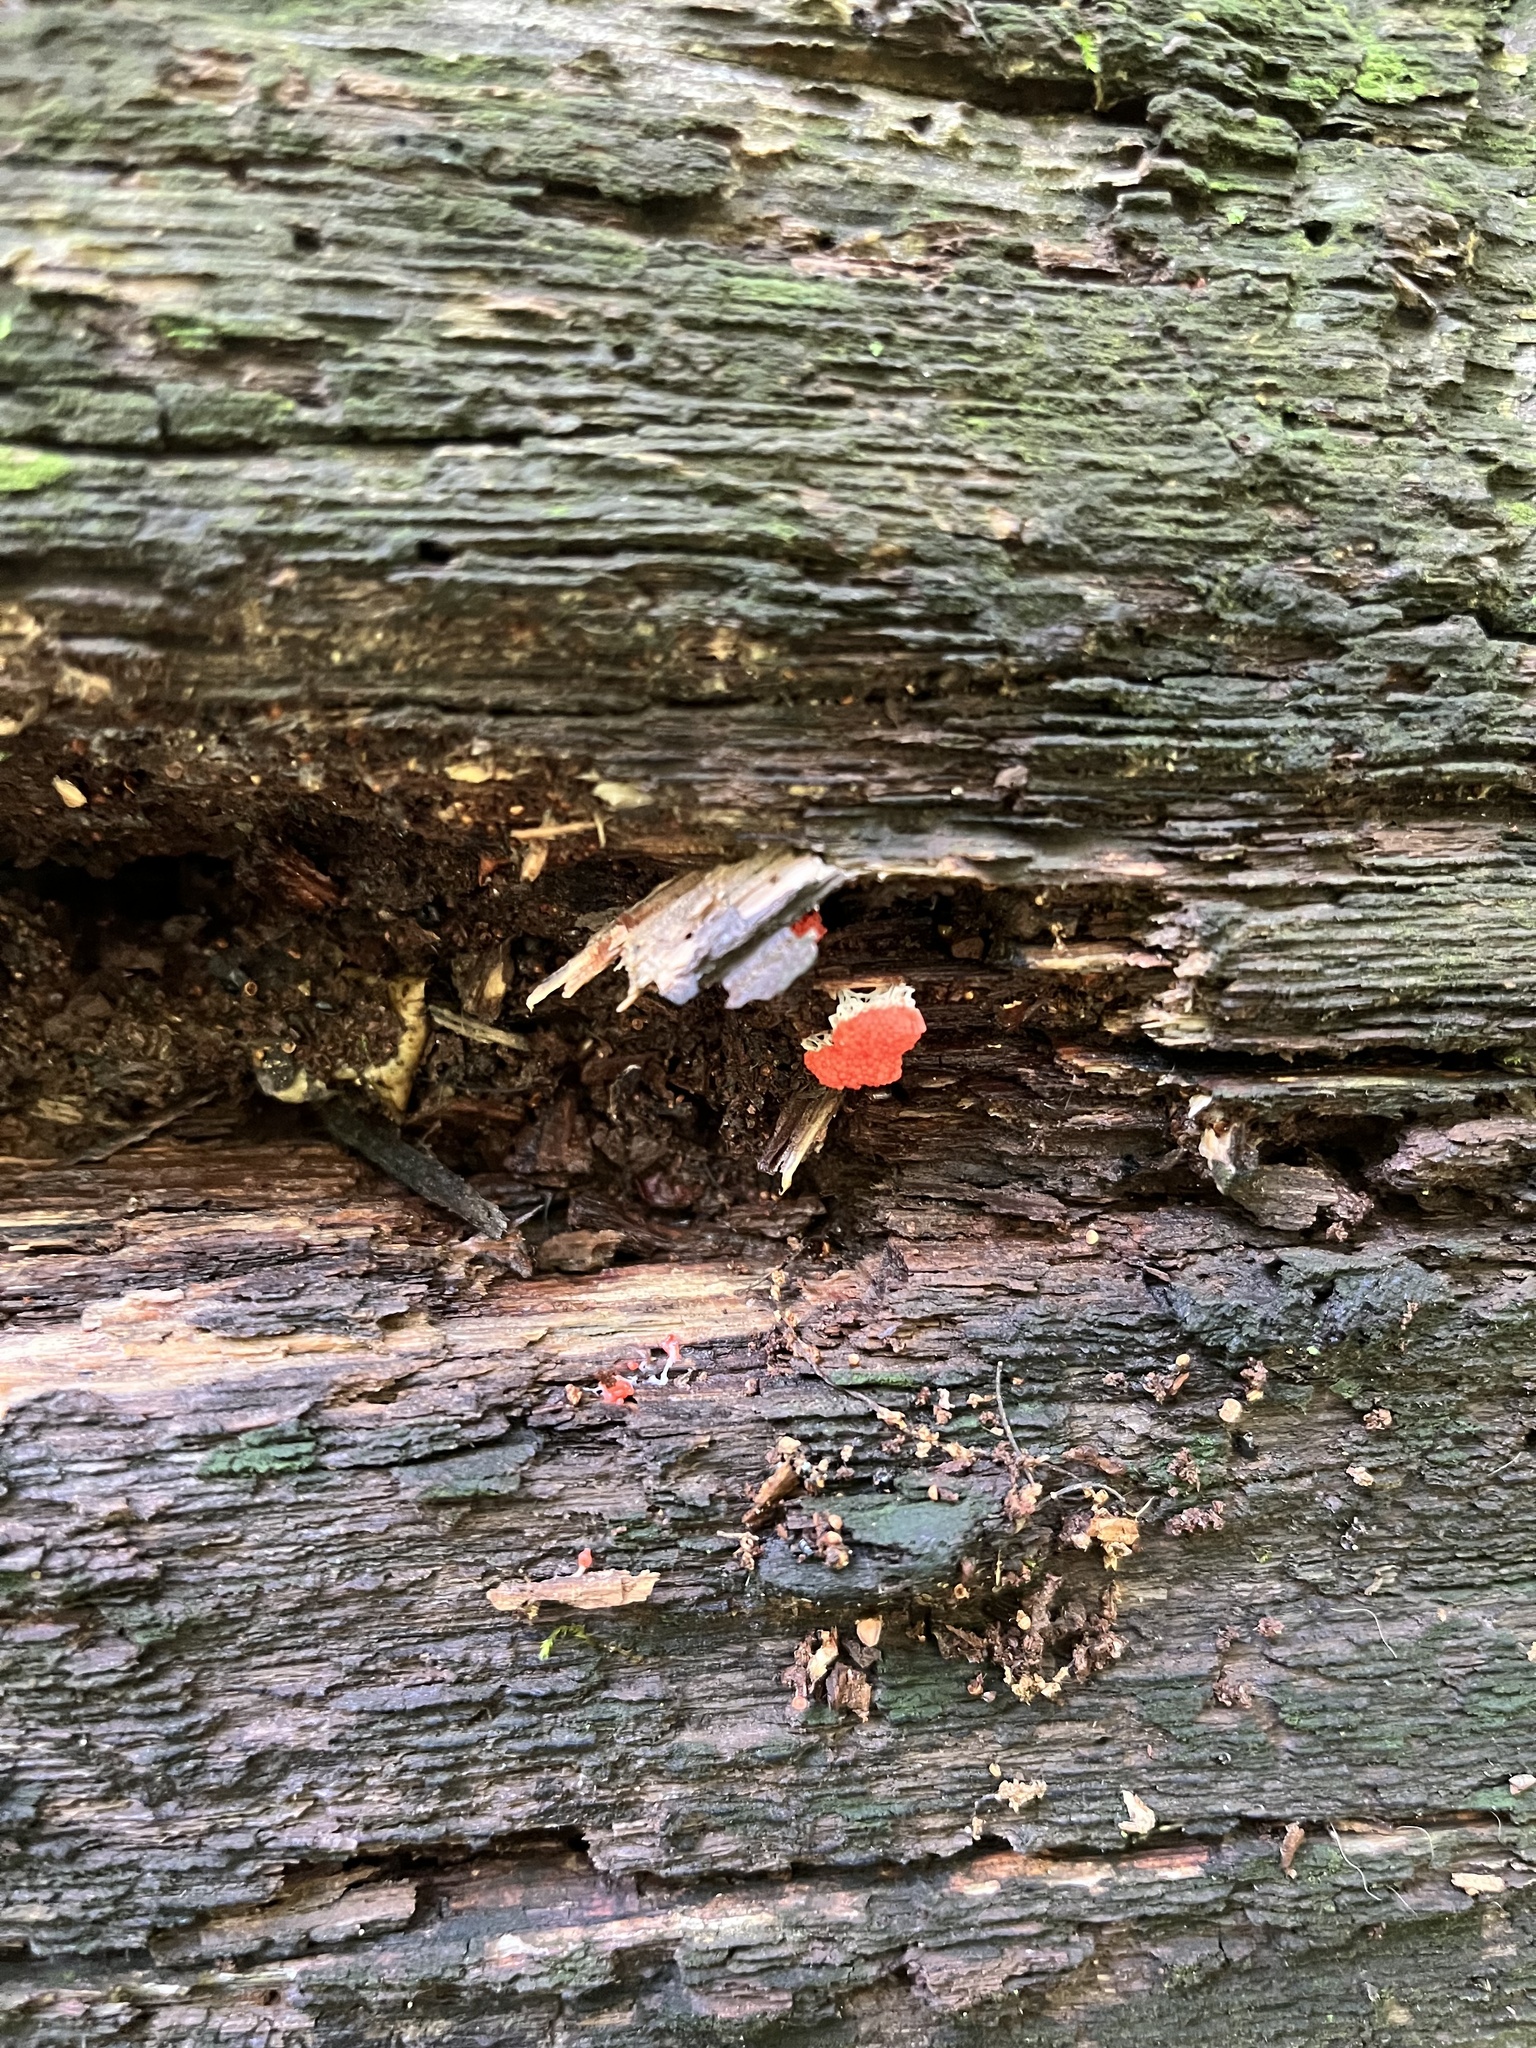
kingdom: Protozoa
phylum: Mycetozoa
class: Myxomycetes
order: Cribrariales
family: Tubiferaceae
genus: Tubifera
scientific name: Tubifera ferruginosa
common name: Red raspberry slime mold
